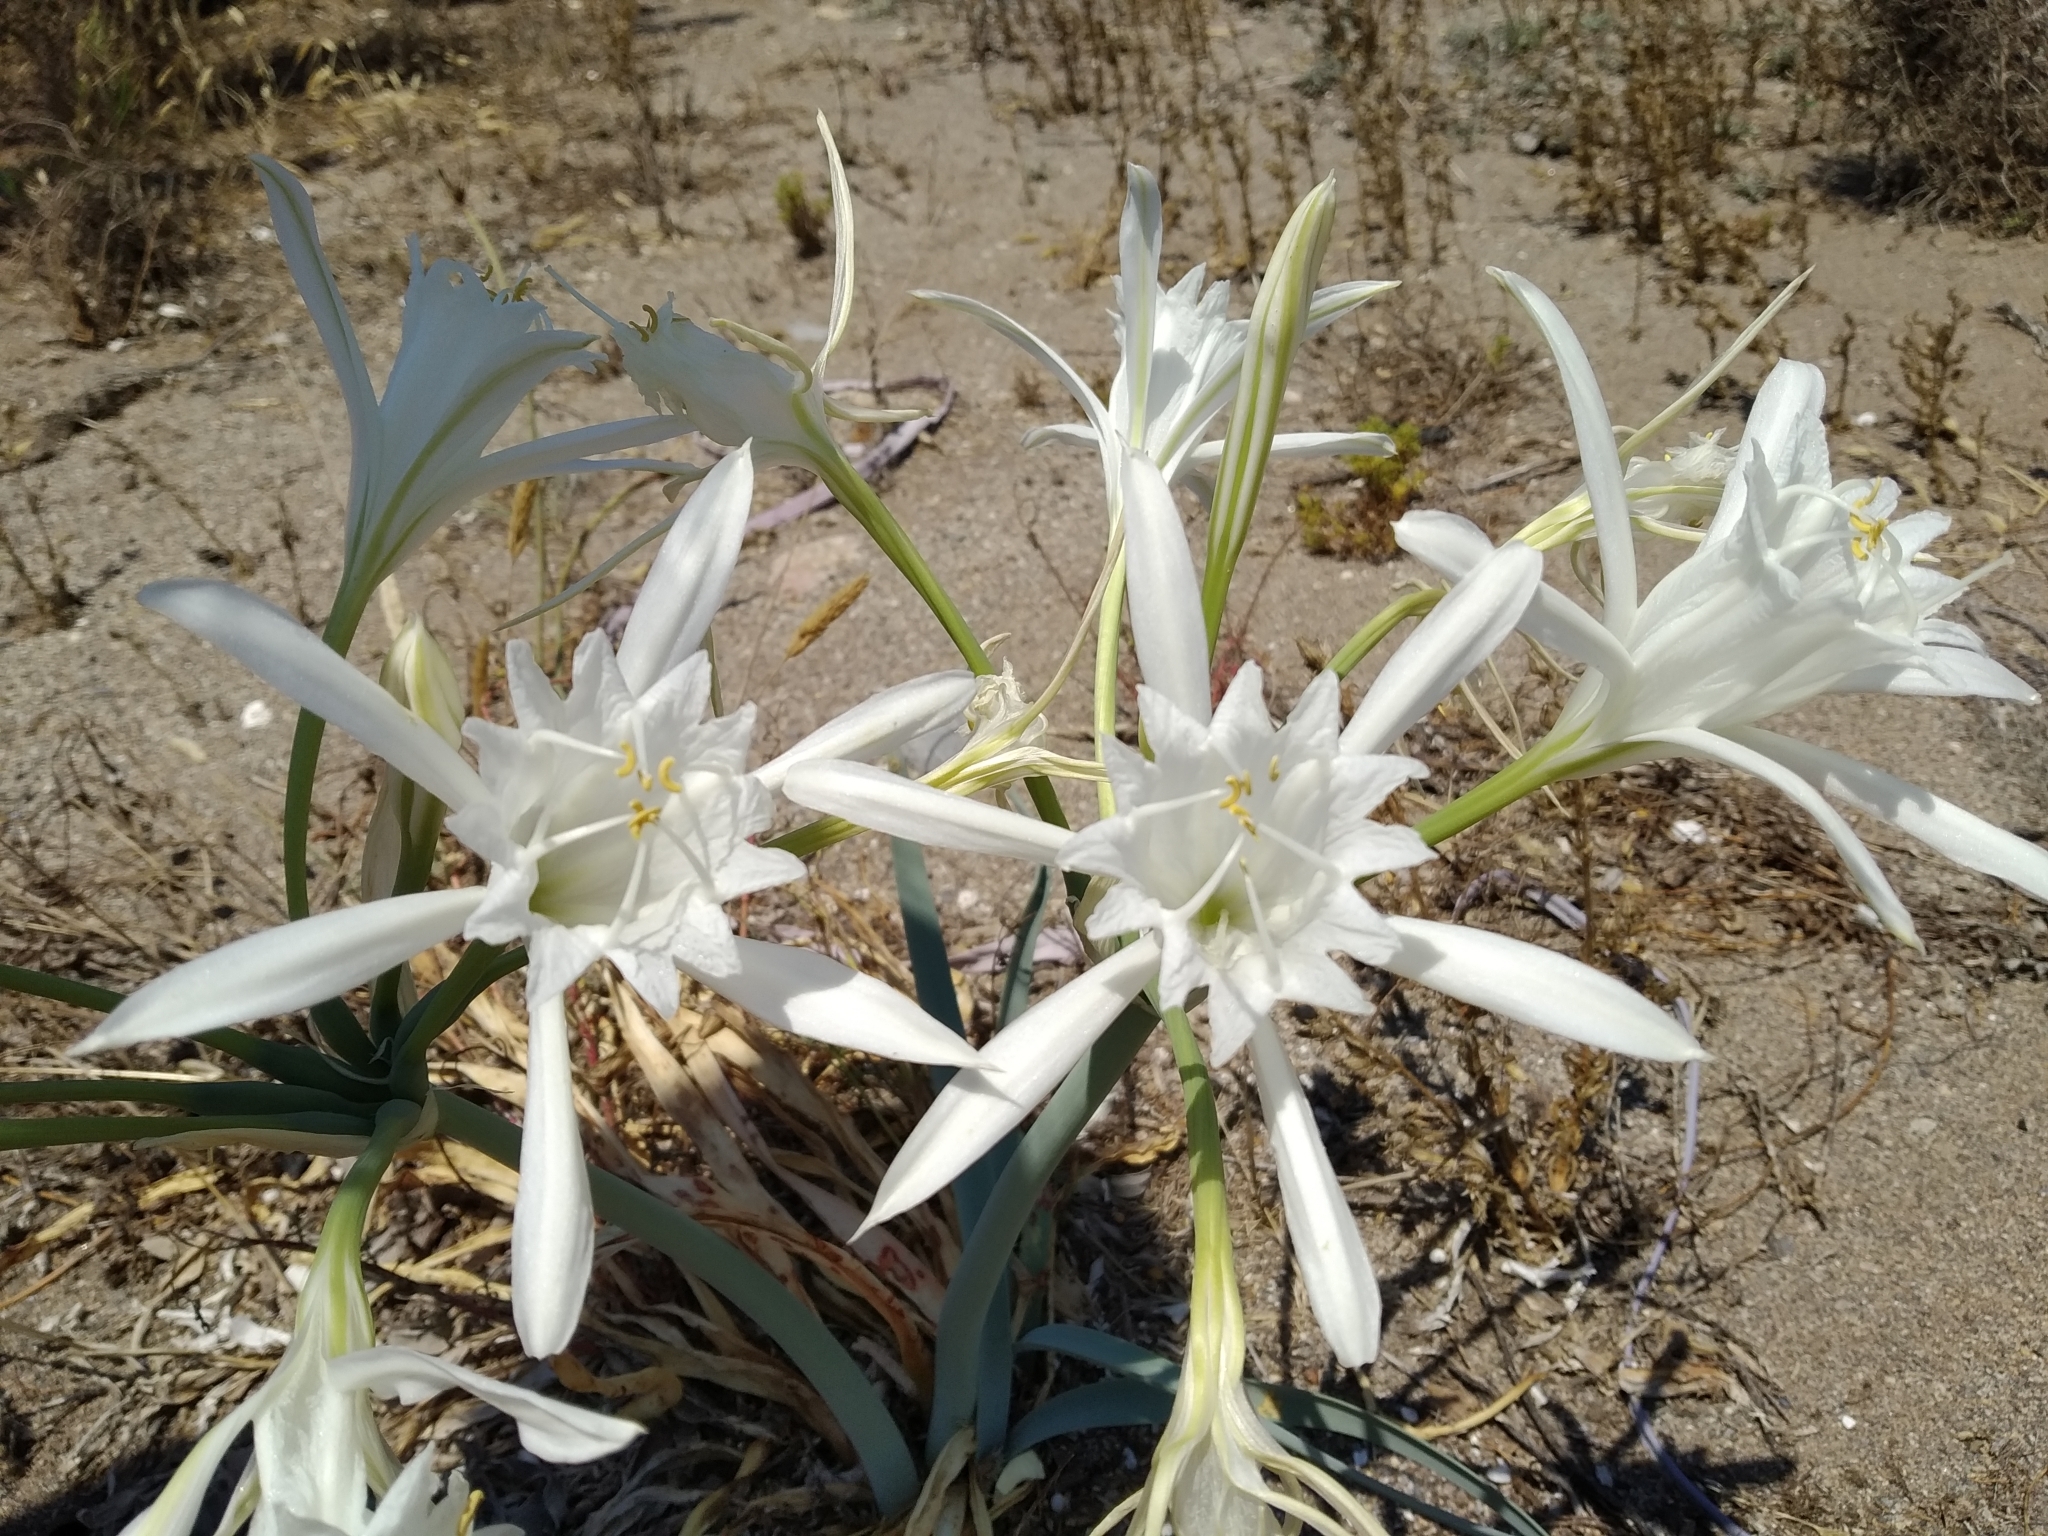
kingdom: Plantae
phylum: Tracheophyta
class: Liliopsida
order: Asparagales
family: Amaryllidaceae
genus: Pancratium
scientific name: Pancratium maritimum
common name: Sea-daffodil
